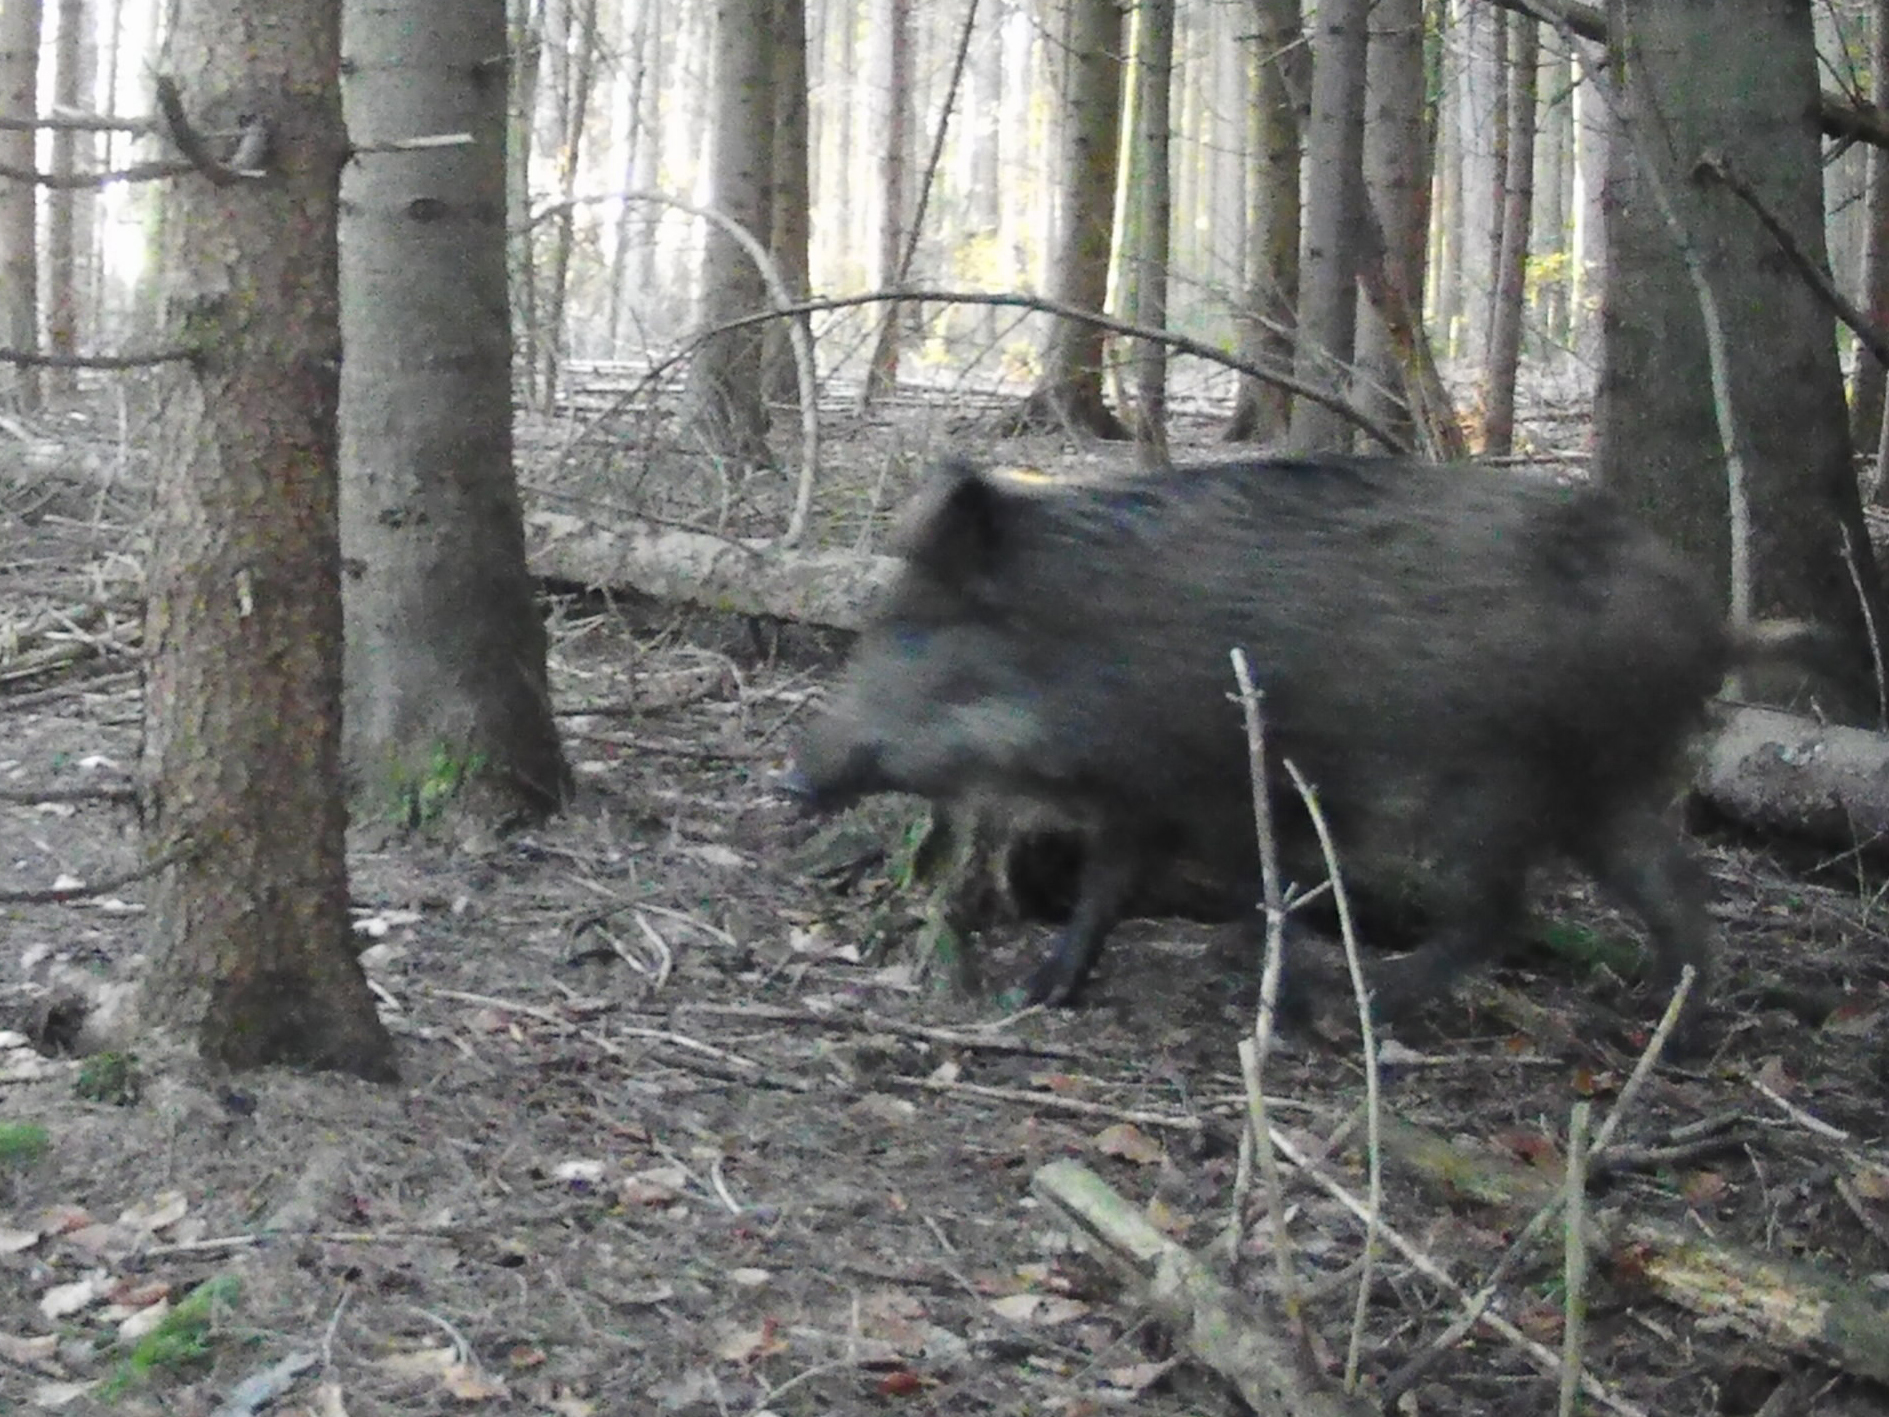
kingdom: Animalia
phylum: Chordata
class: Mammalia
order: Artiodactyla
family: Suidae
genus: Sus
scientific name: Sus scrofa
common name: Wild boar
